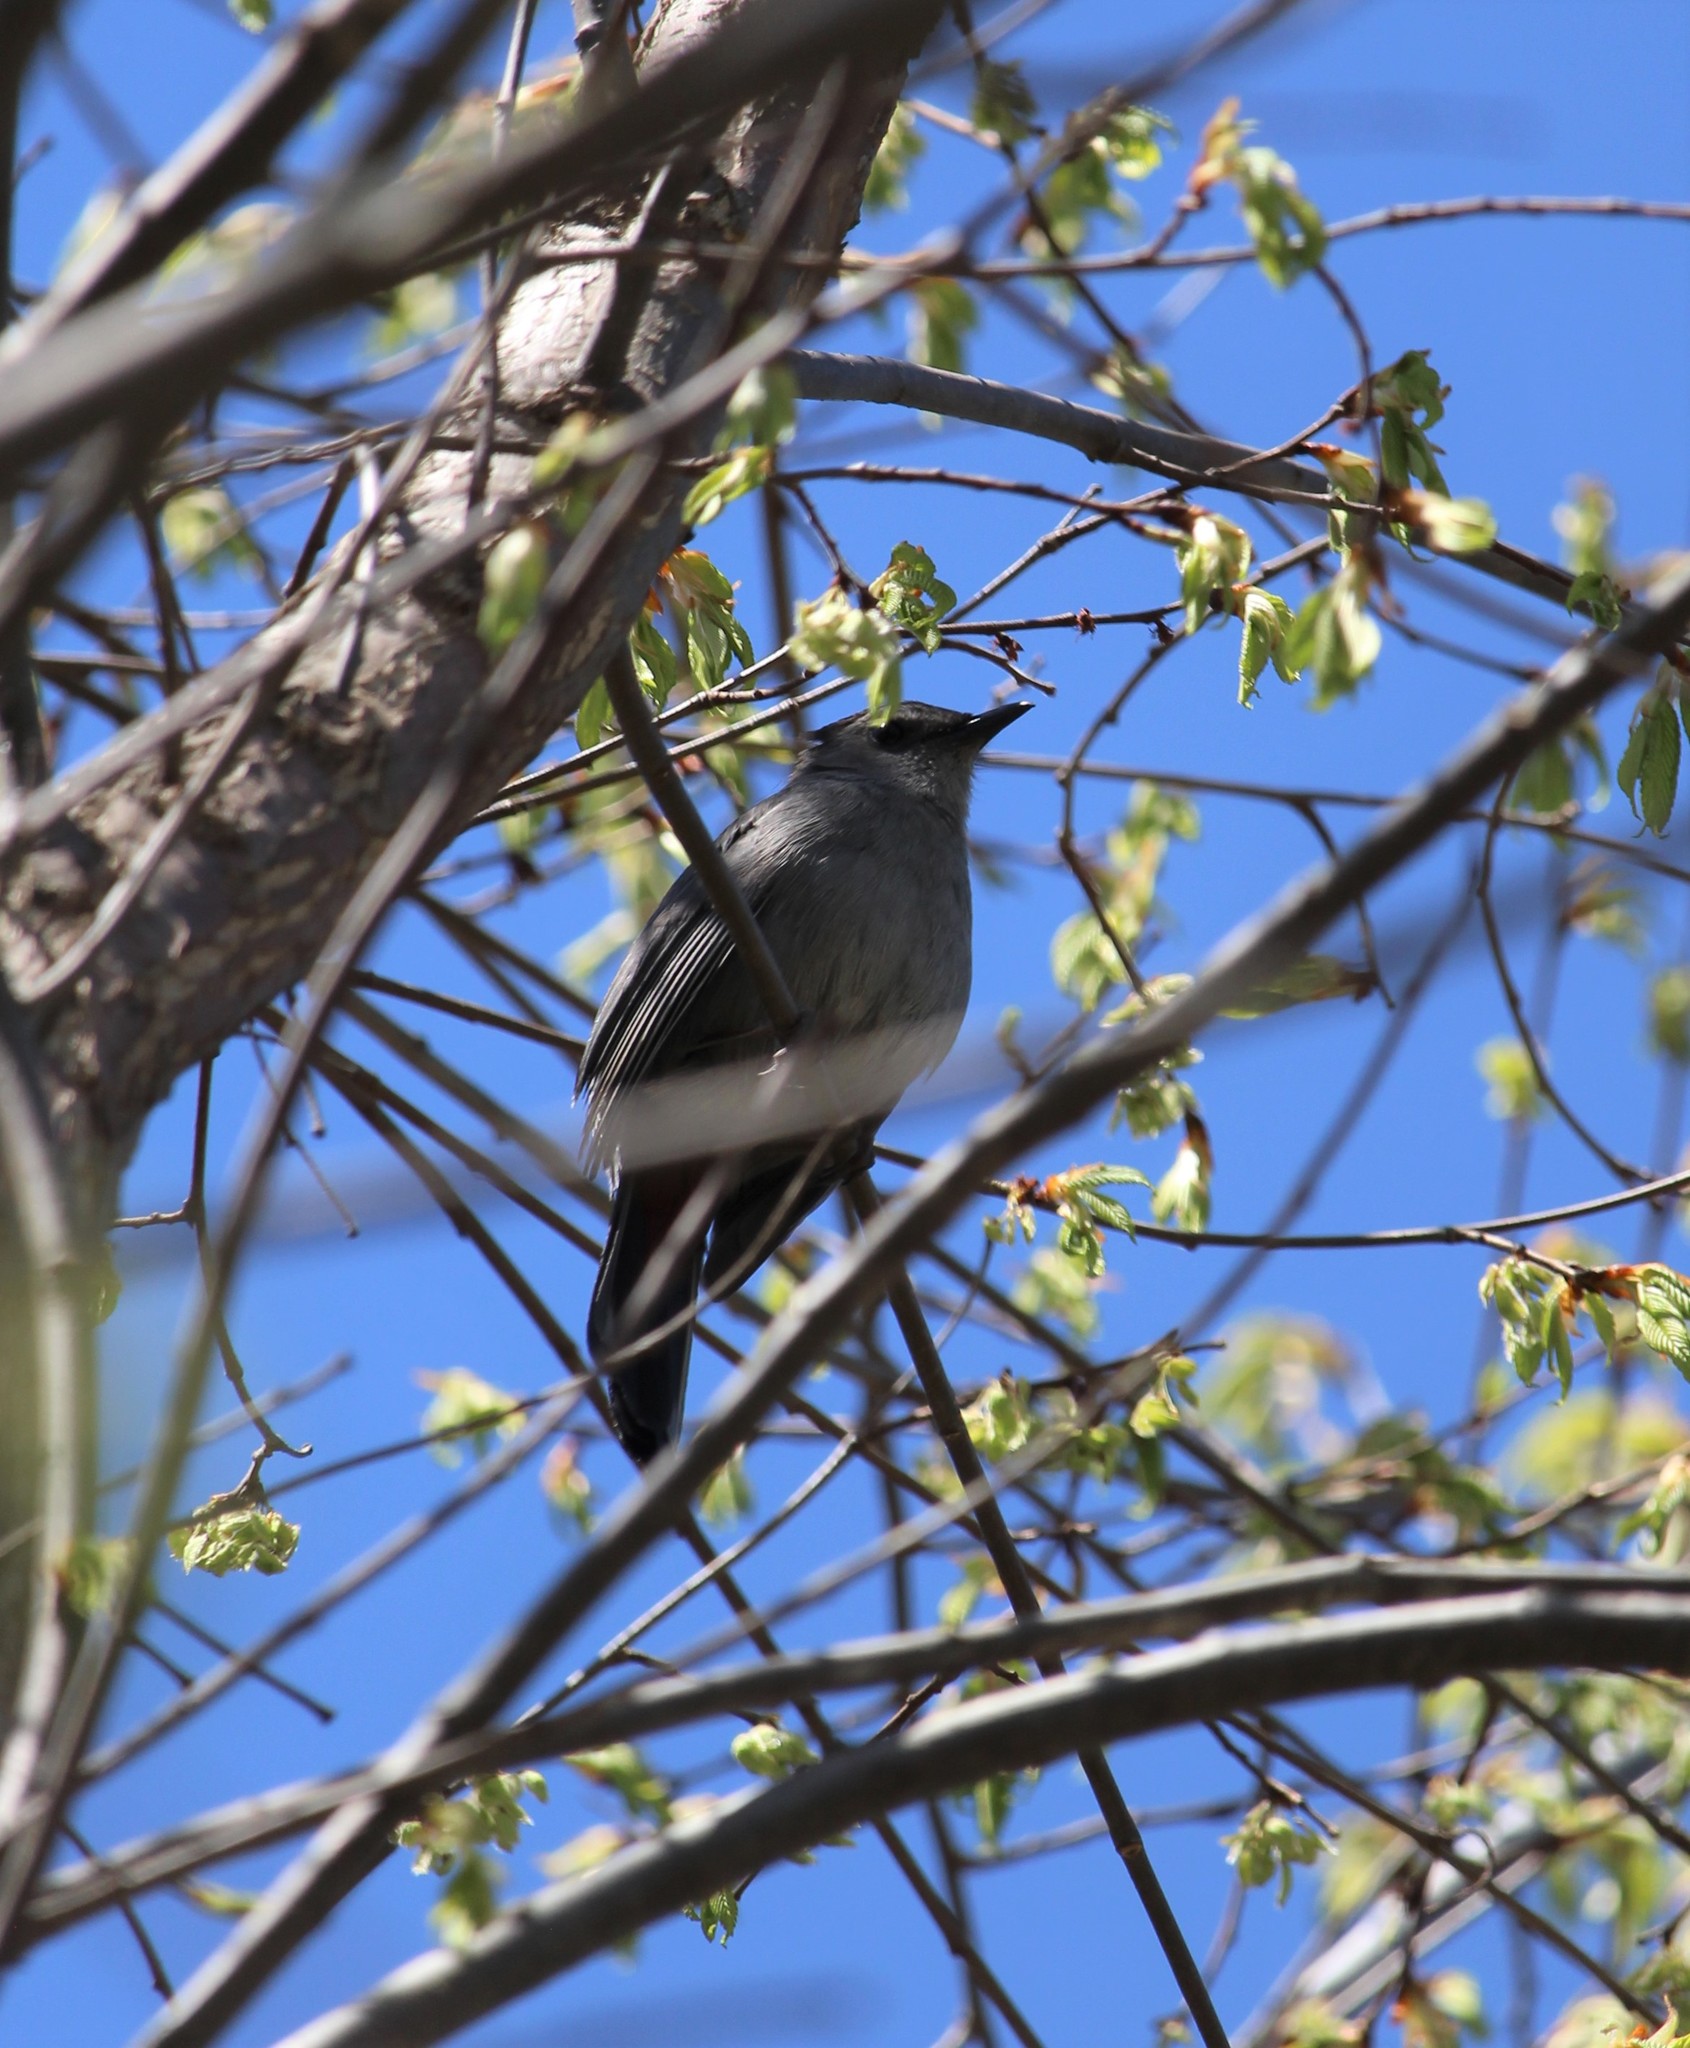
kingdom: Animalia
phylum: Chordata
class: Aves
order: Passeriformes
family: Mimidae
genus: Dumetella
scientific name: Dumetella carolinensis
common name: Gray catbird
